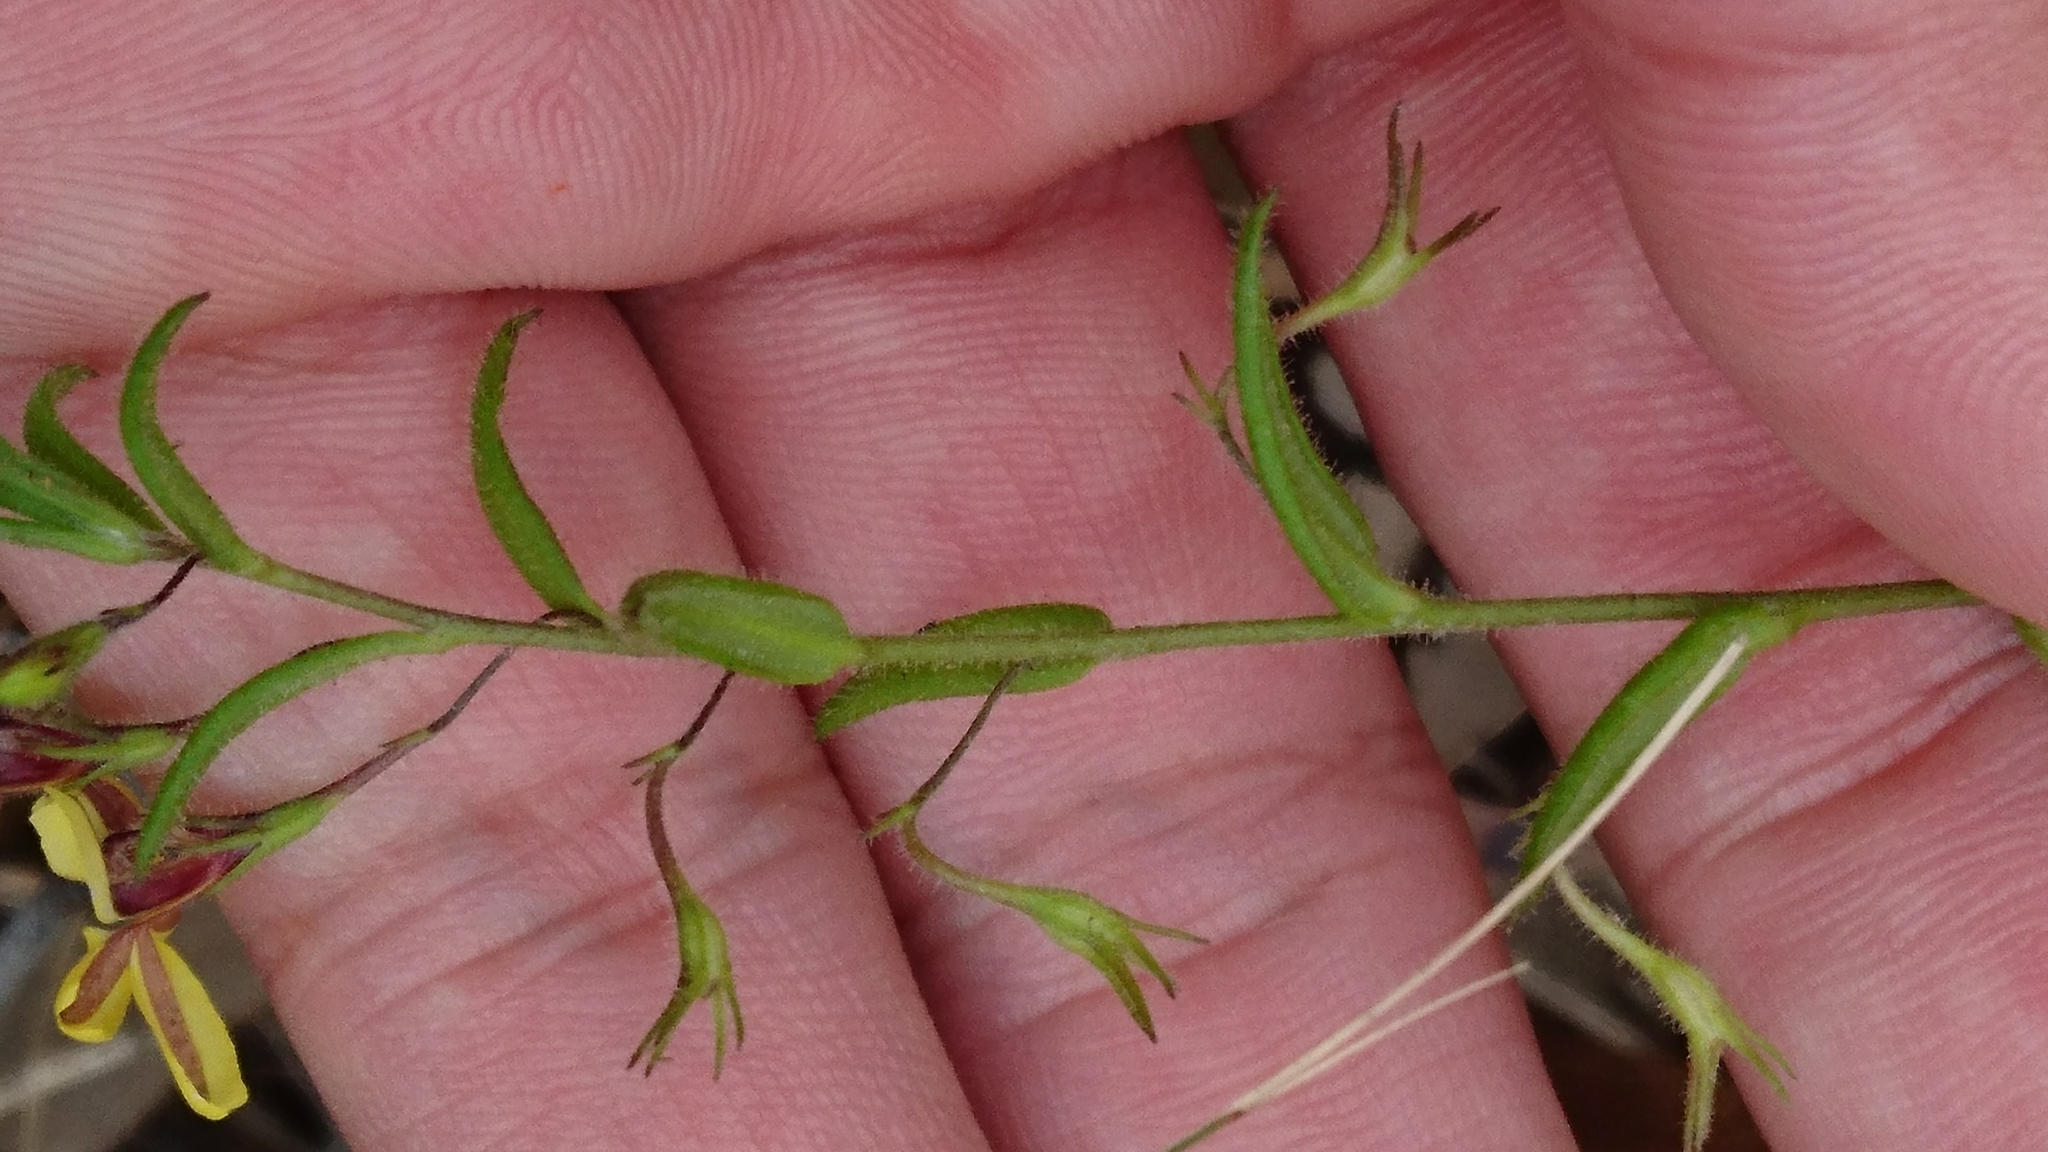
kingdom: Plantae
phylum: Tracheophyta
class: Magnoliopsida
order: Asterales
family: Goodeniaceae
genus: Goodenia
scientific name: Goodenia heterophylla
